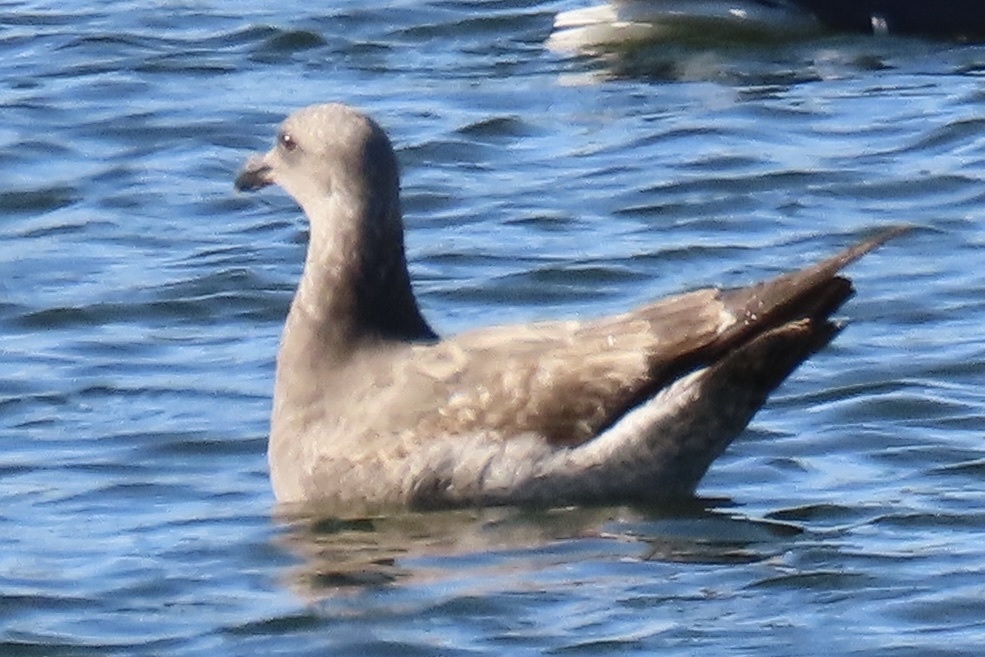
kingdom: Animalia
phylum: Chordata
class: Aves
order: Charadriiformes
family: Laridae
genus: Larus
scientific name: Larus occidentalis
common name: Western gull
